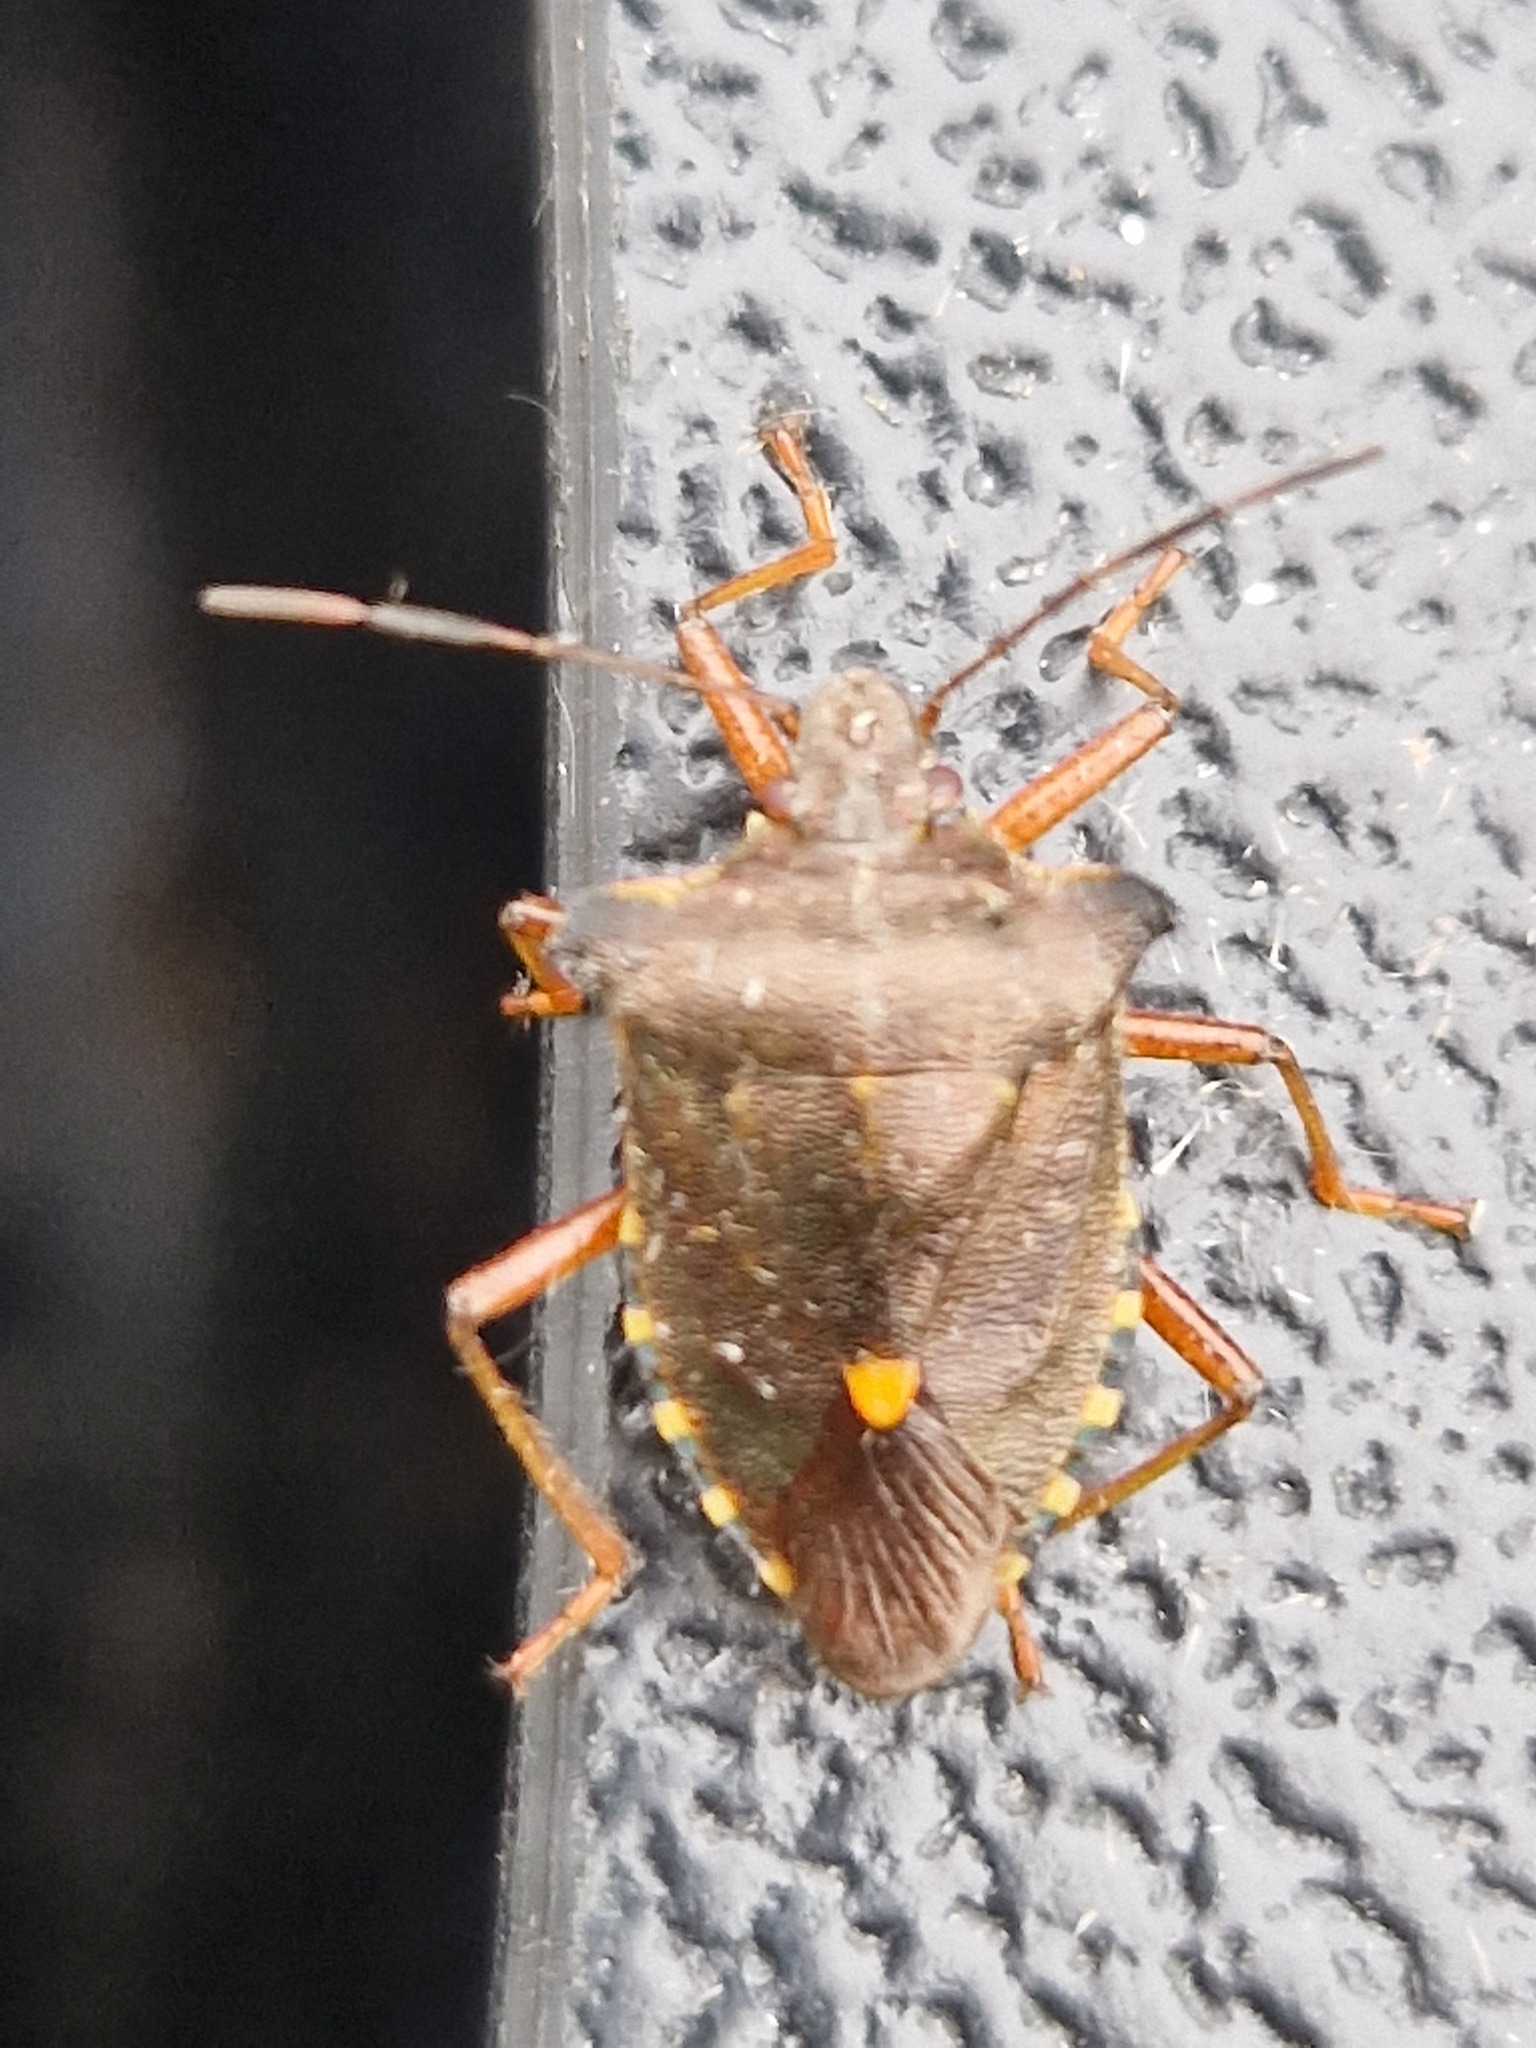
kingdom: Animalia
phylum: Arthropoda
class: Insecta
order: Hemiptera
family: Pentatomidae
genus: Pentatoma
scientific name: Pentatoma rufipes
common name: Forest bug
